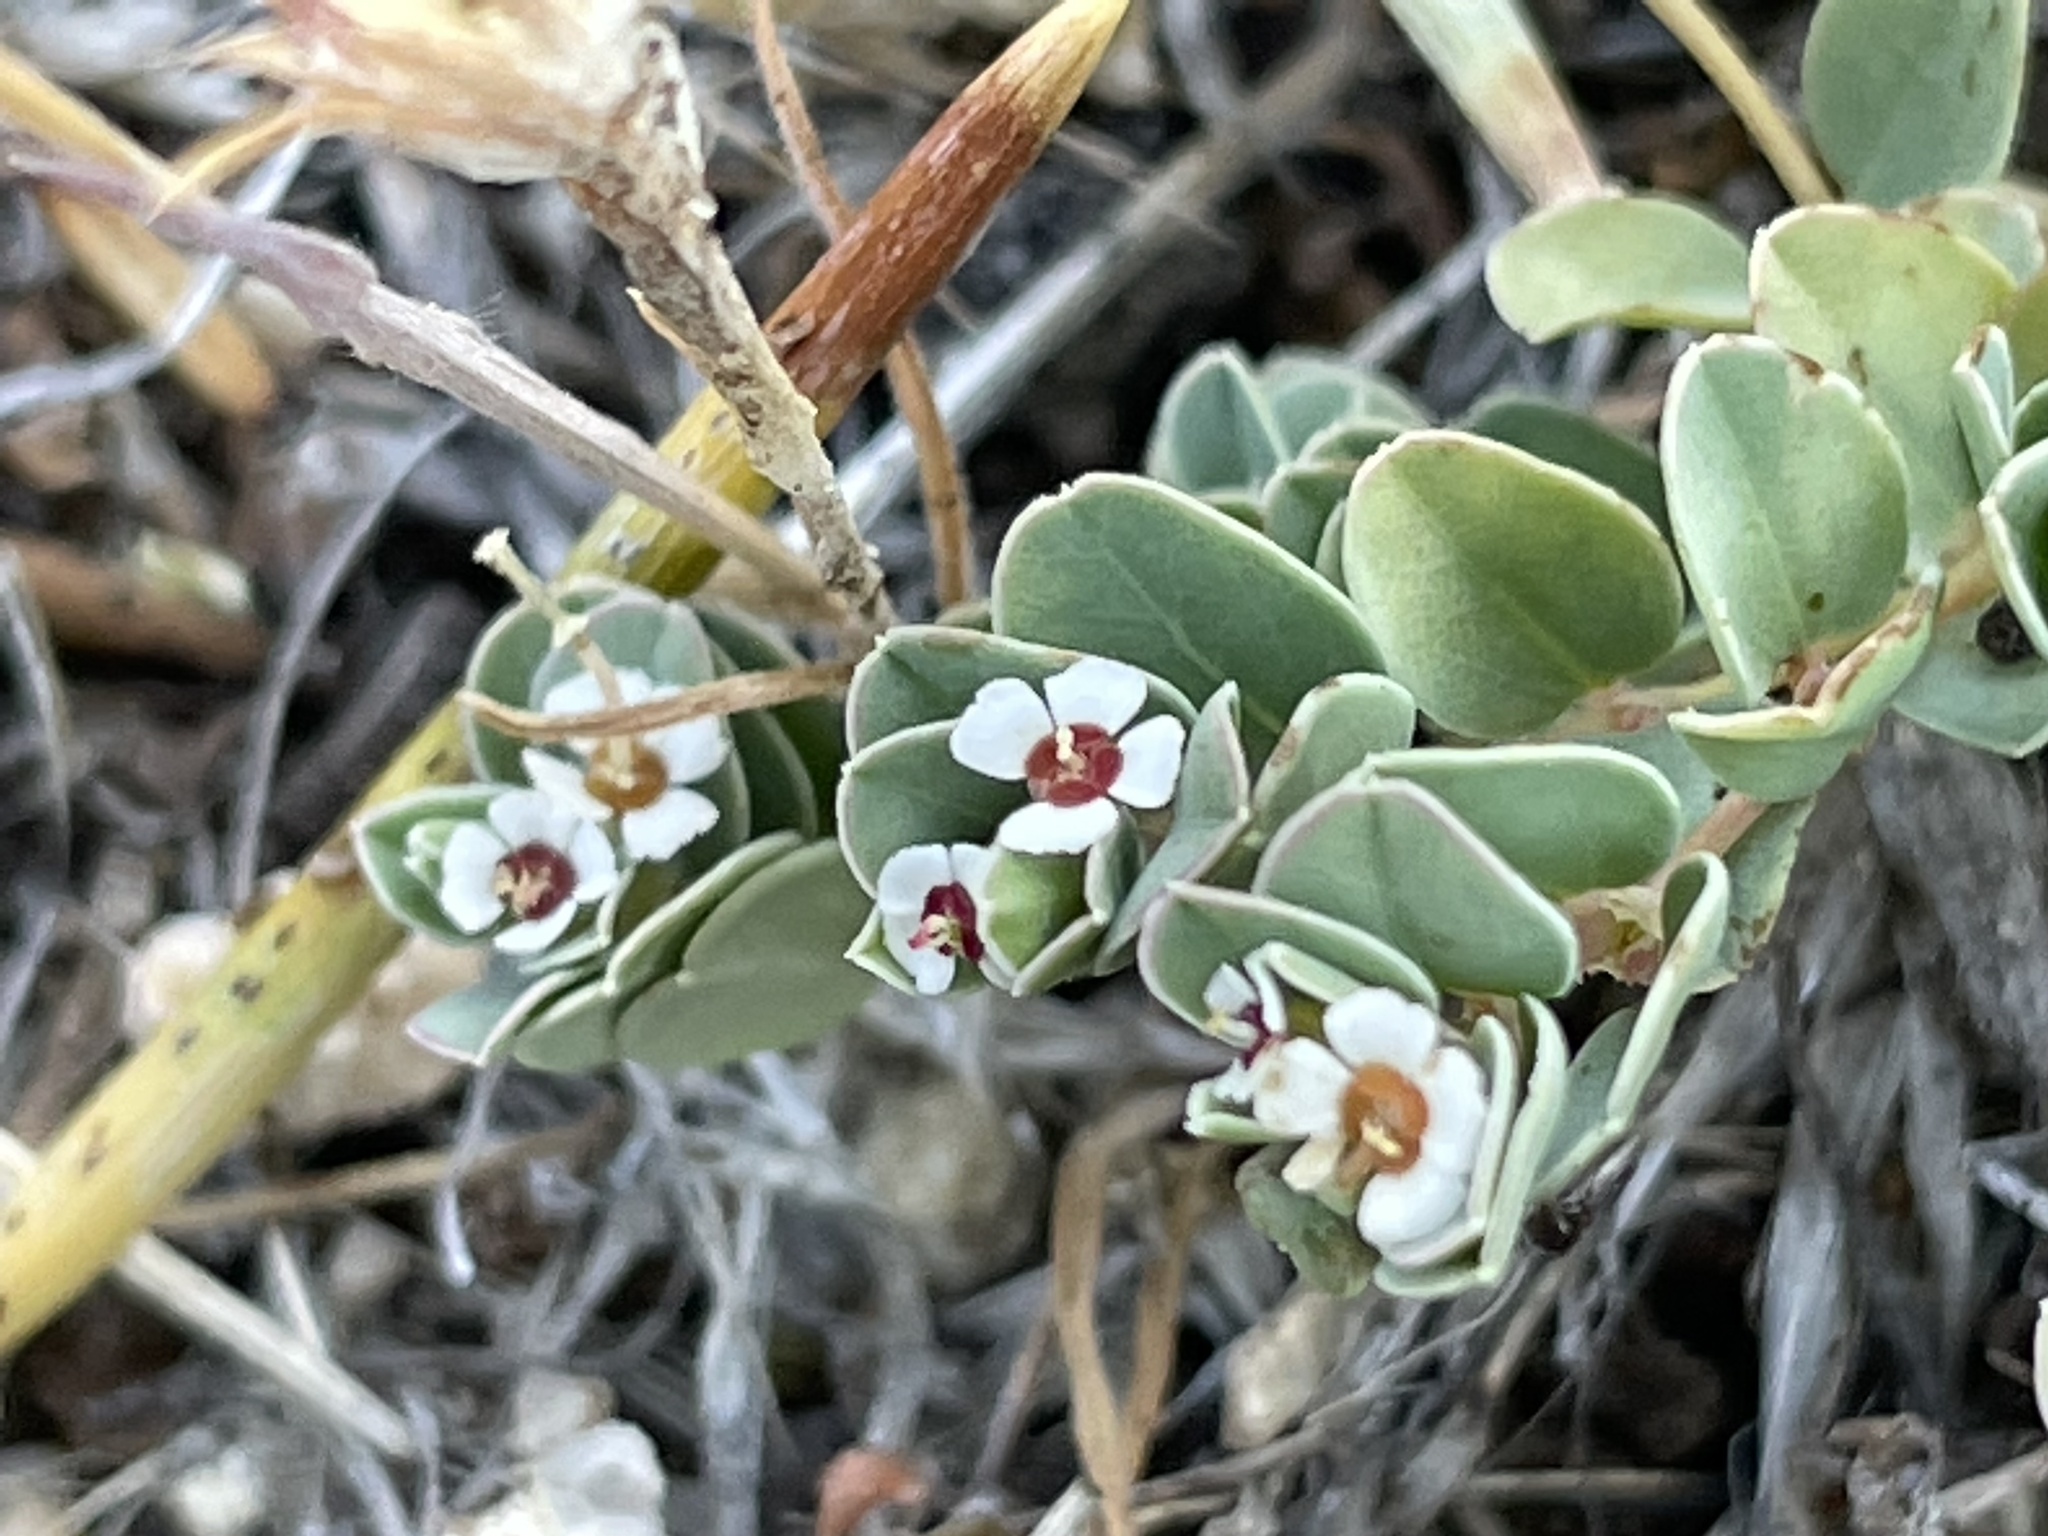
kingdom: Plantae
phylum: Tracheophyta
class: Magnoliopsida
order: Malpighiales
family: Euphorbiaceae
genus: Euphorbia
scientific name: Euphorbia albomarginata
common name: Whitemargin sandmat
